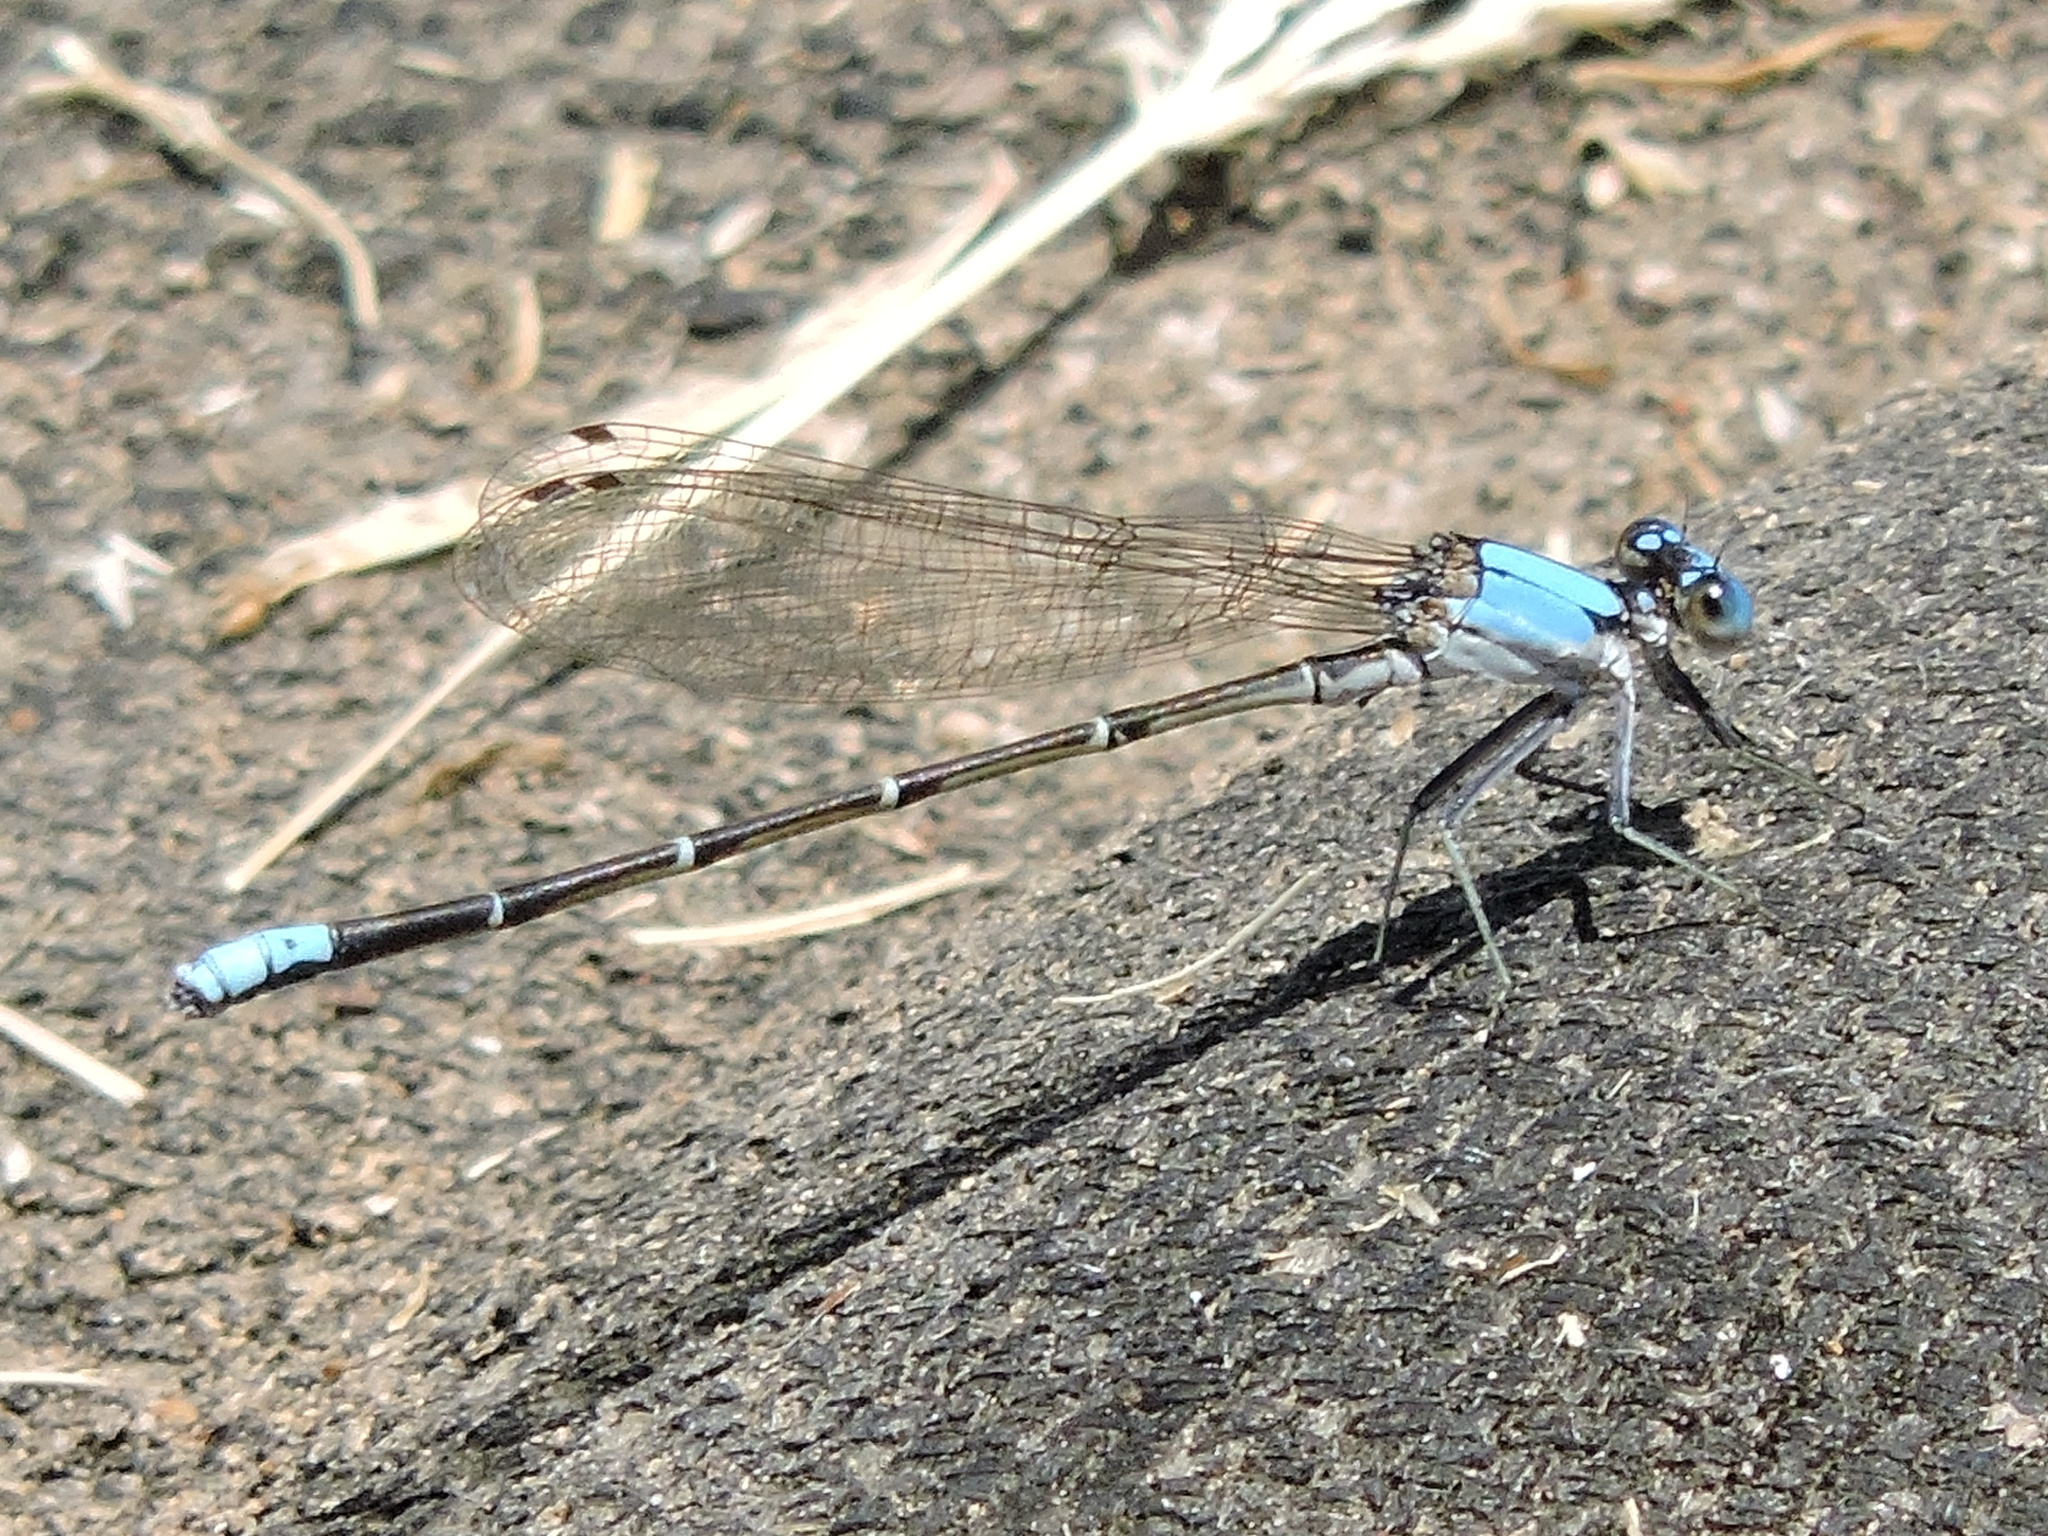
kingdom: Animalia
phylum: Arthropoda
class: Insecta
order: Odonata
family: Coenagrionidae
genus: Argia
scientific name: Argia apicalis
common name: Blue-fronted dancer
